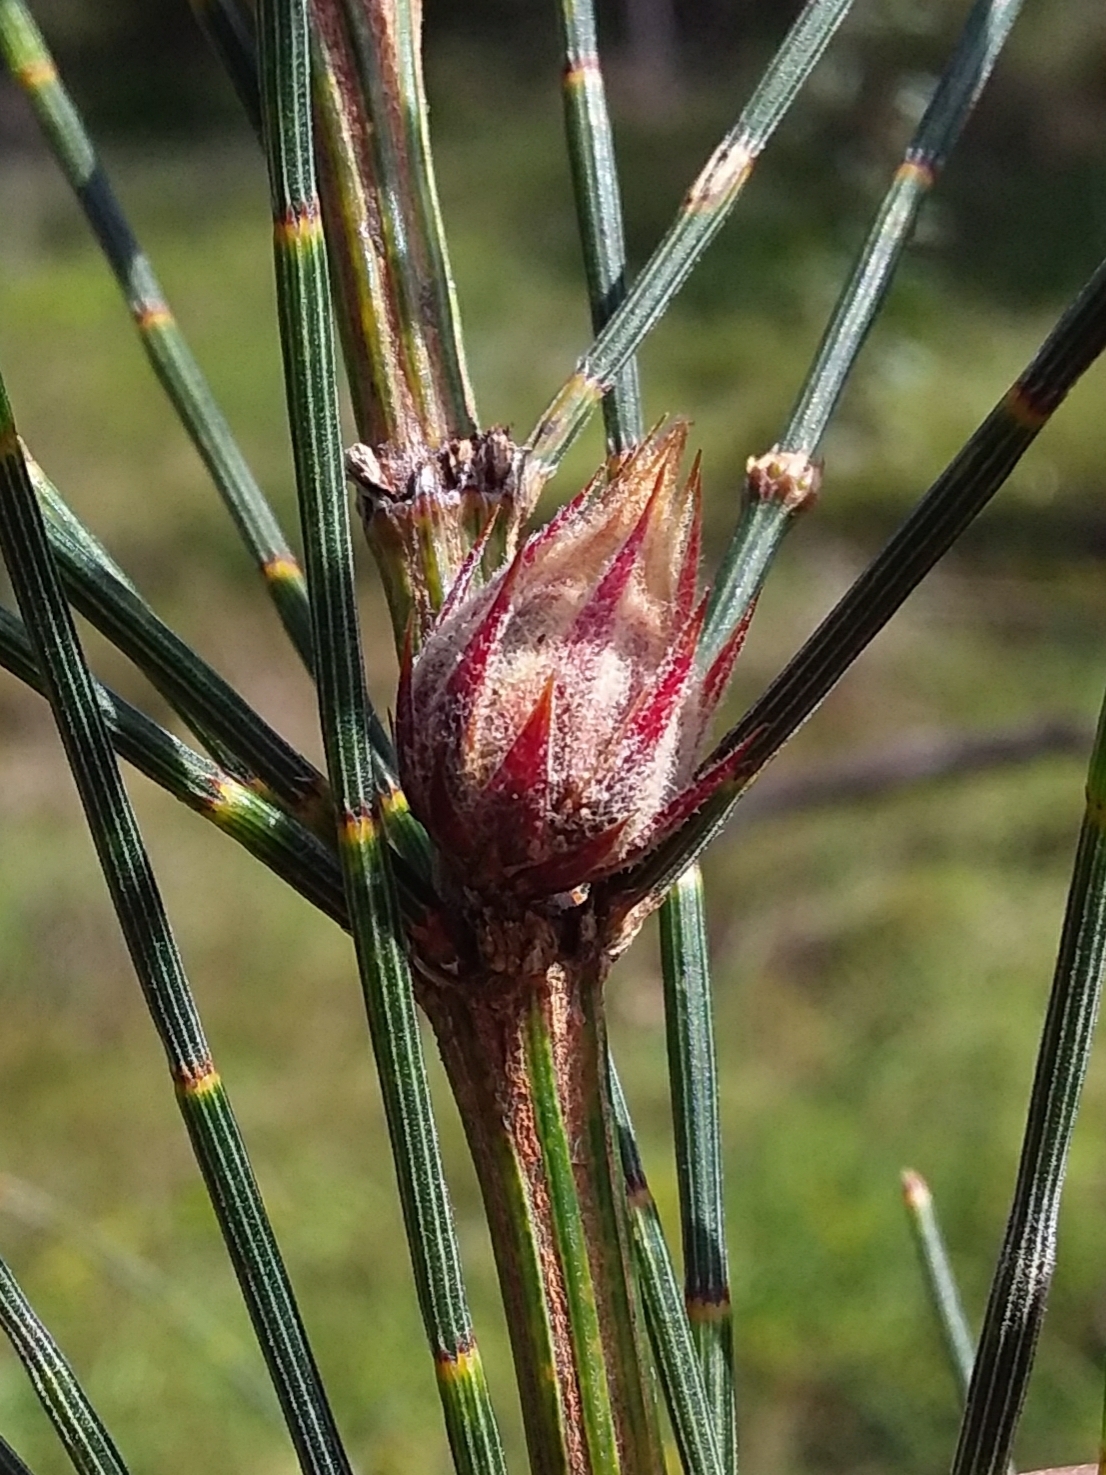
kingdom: Animalia
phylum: Arthropoda
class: Insecta
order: Hemiptera
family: Eriococcidae
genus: Cylindrococcus
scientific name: Cylindrococcus casuarinae
